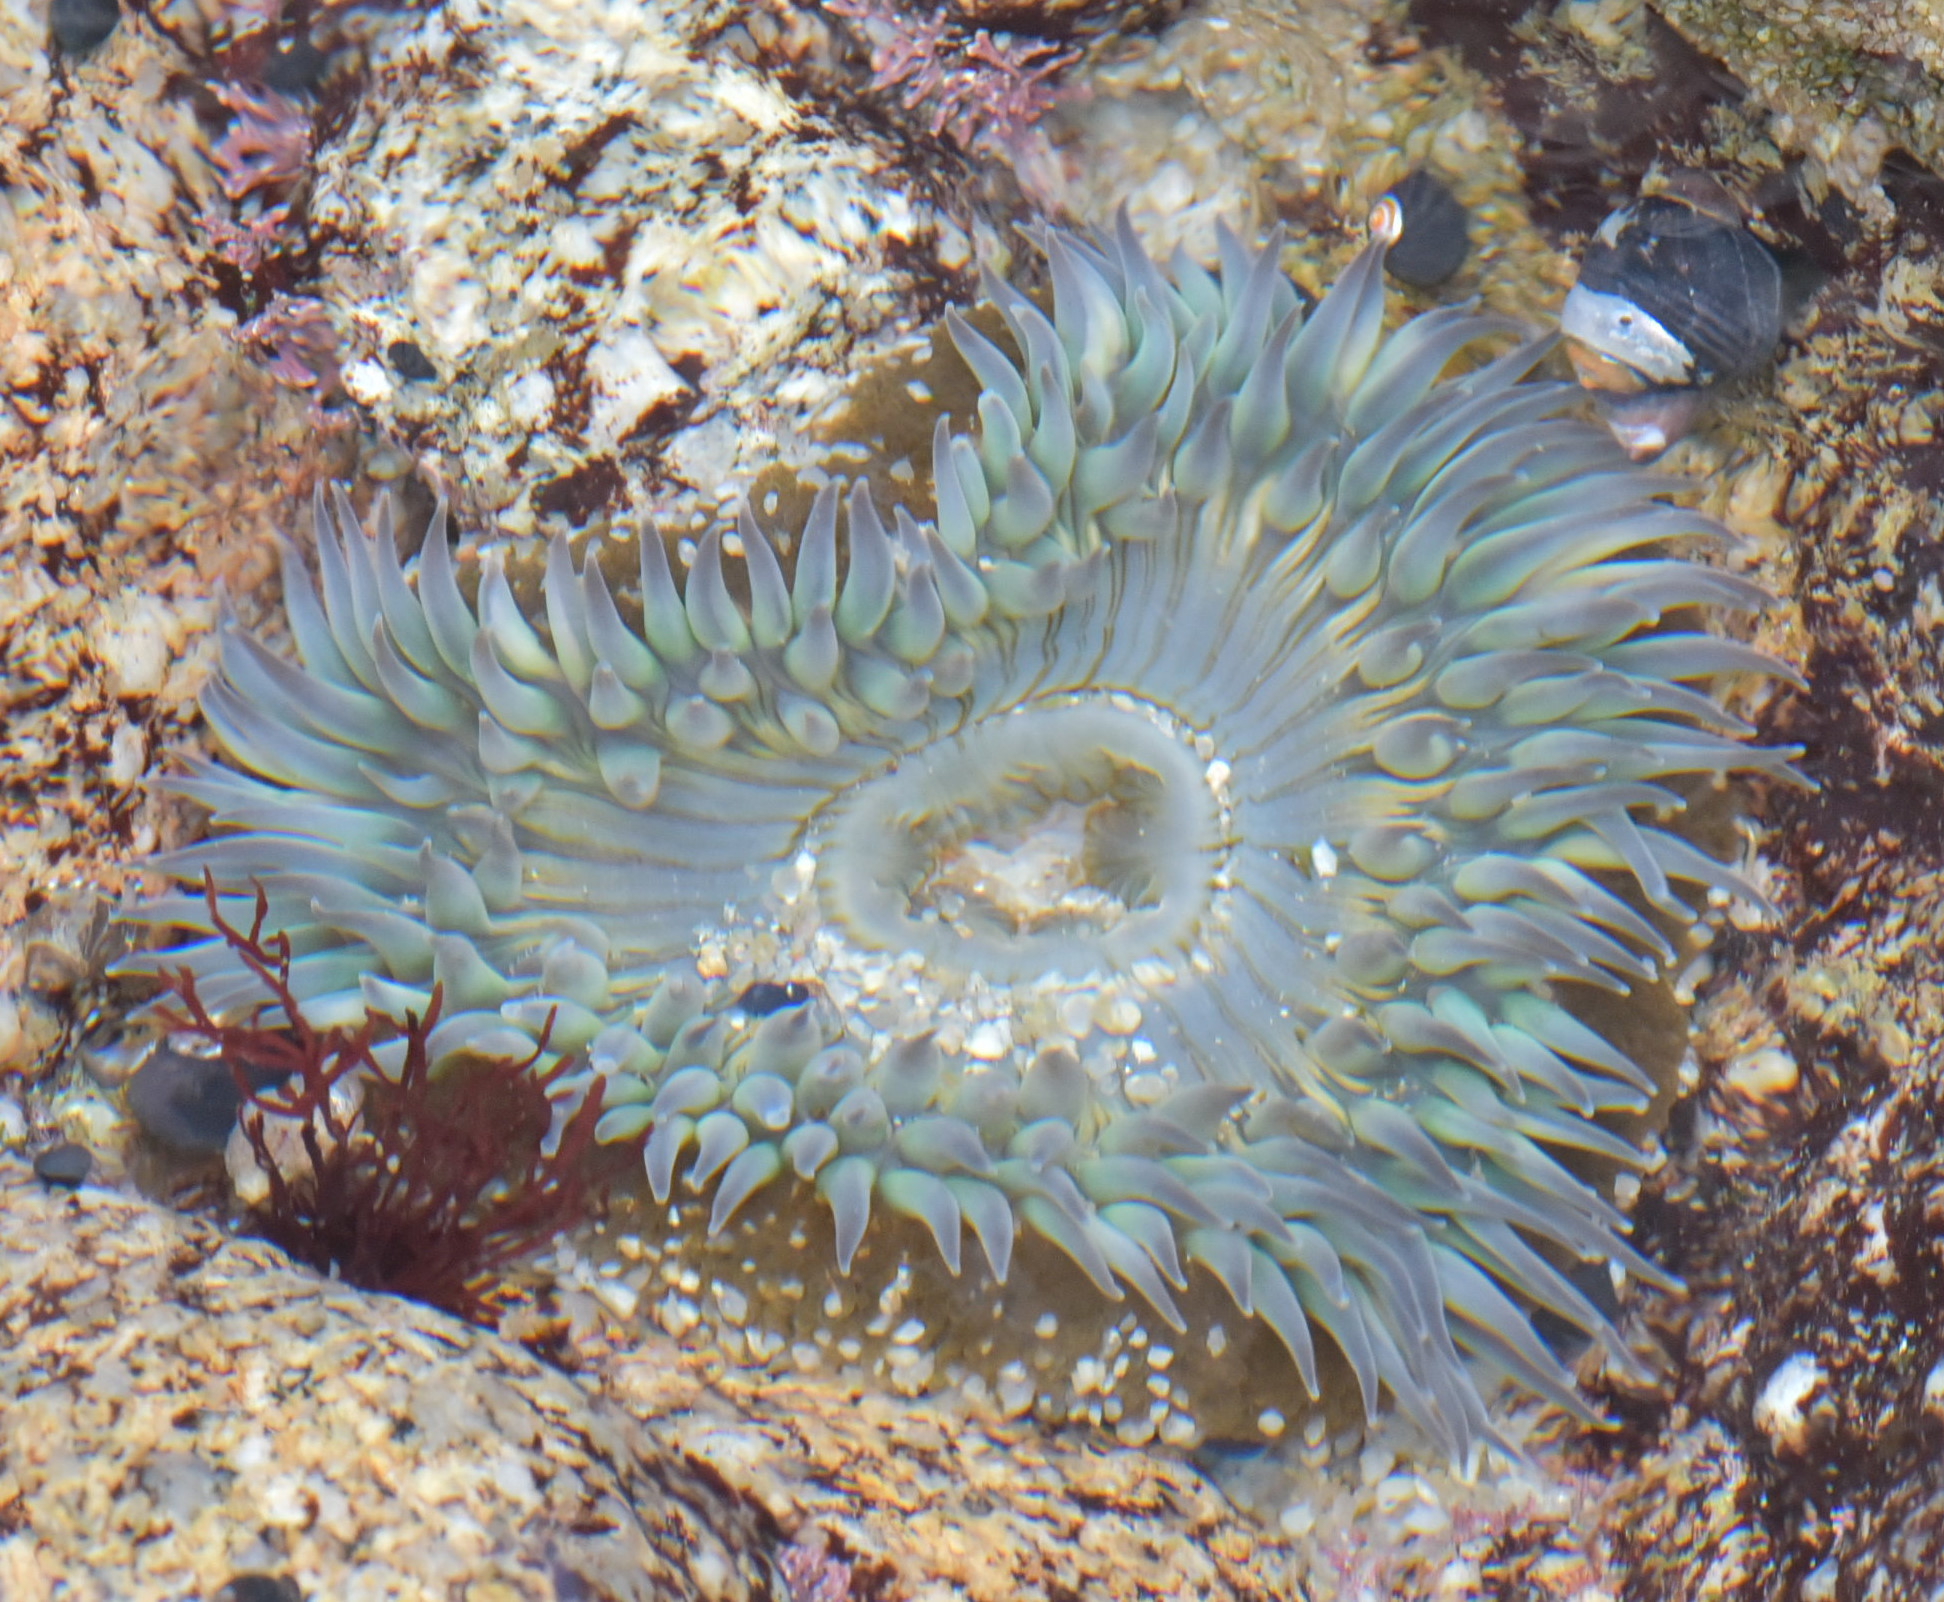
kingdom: Animalia
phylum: Cnidaria
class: Anthozoa
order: Actiniaria
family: Actiniidae
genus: Anthopleura
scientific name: Anthopleura sola
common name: Sun anemone
